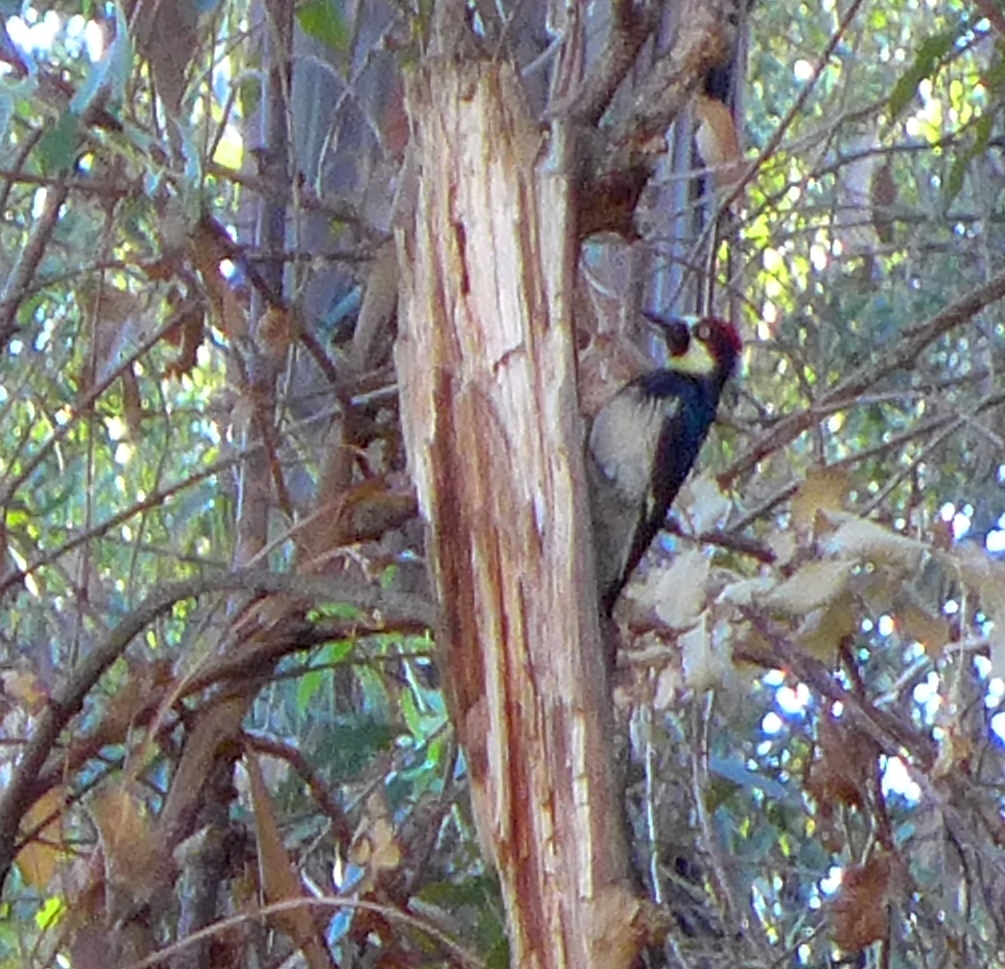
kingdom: Animalia
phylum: Chordata
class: Aves
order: Piciformes
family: Picidae
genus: Melanerpes
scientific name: Melanerpes formicivorus
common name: Acorn woodpecker
